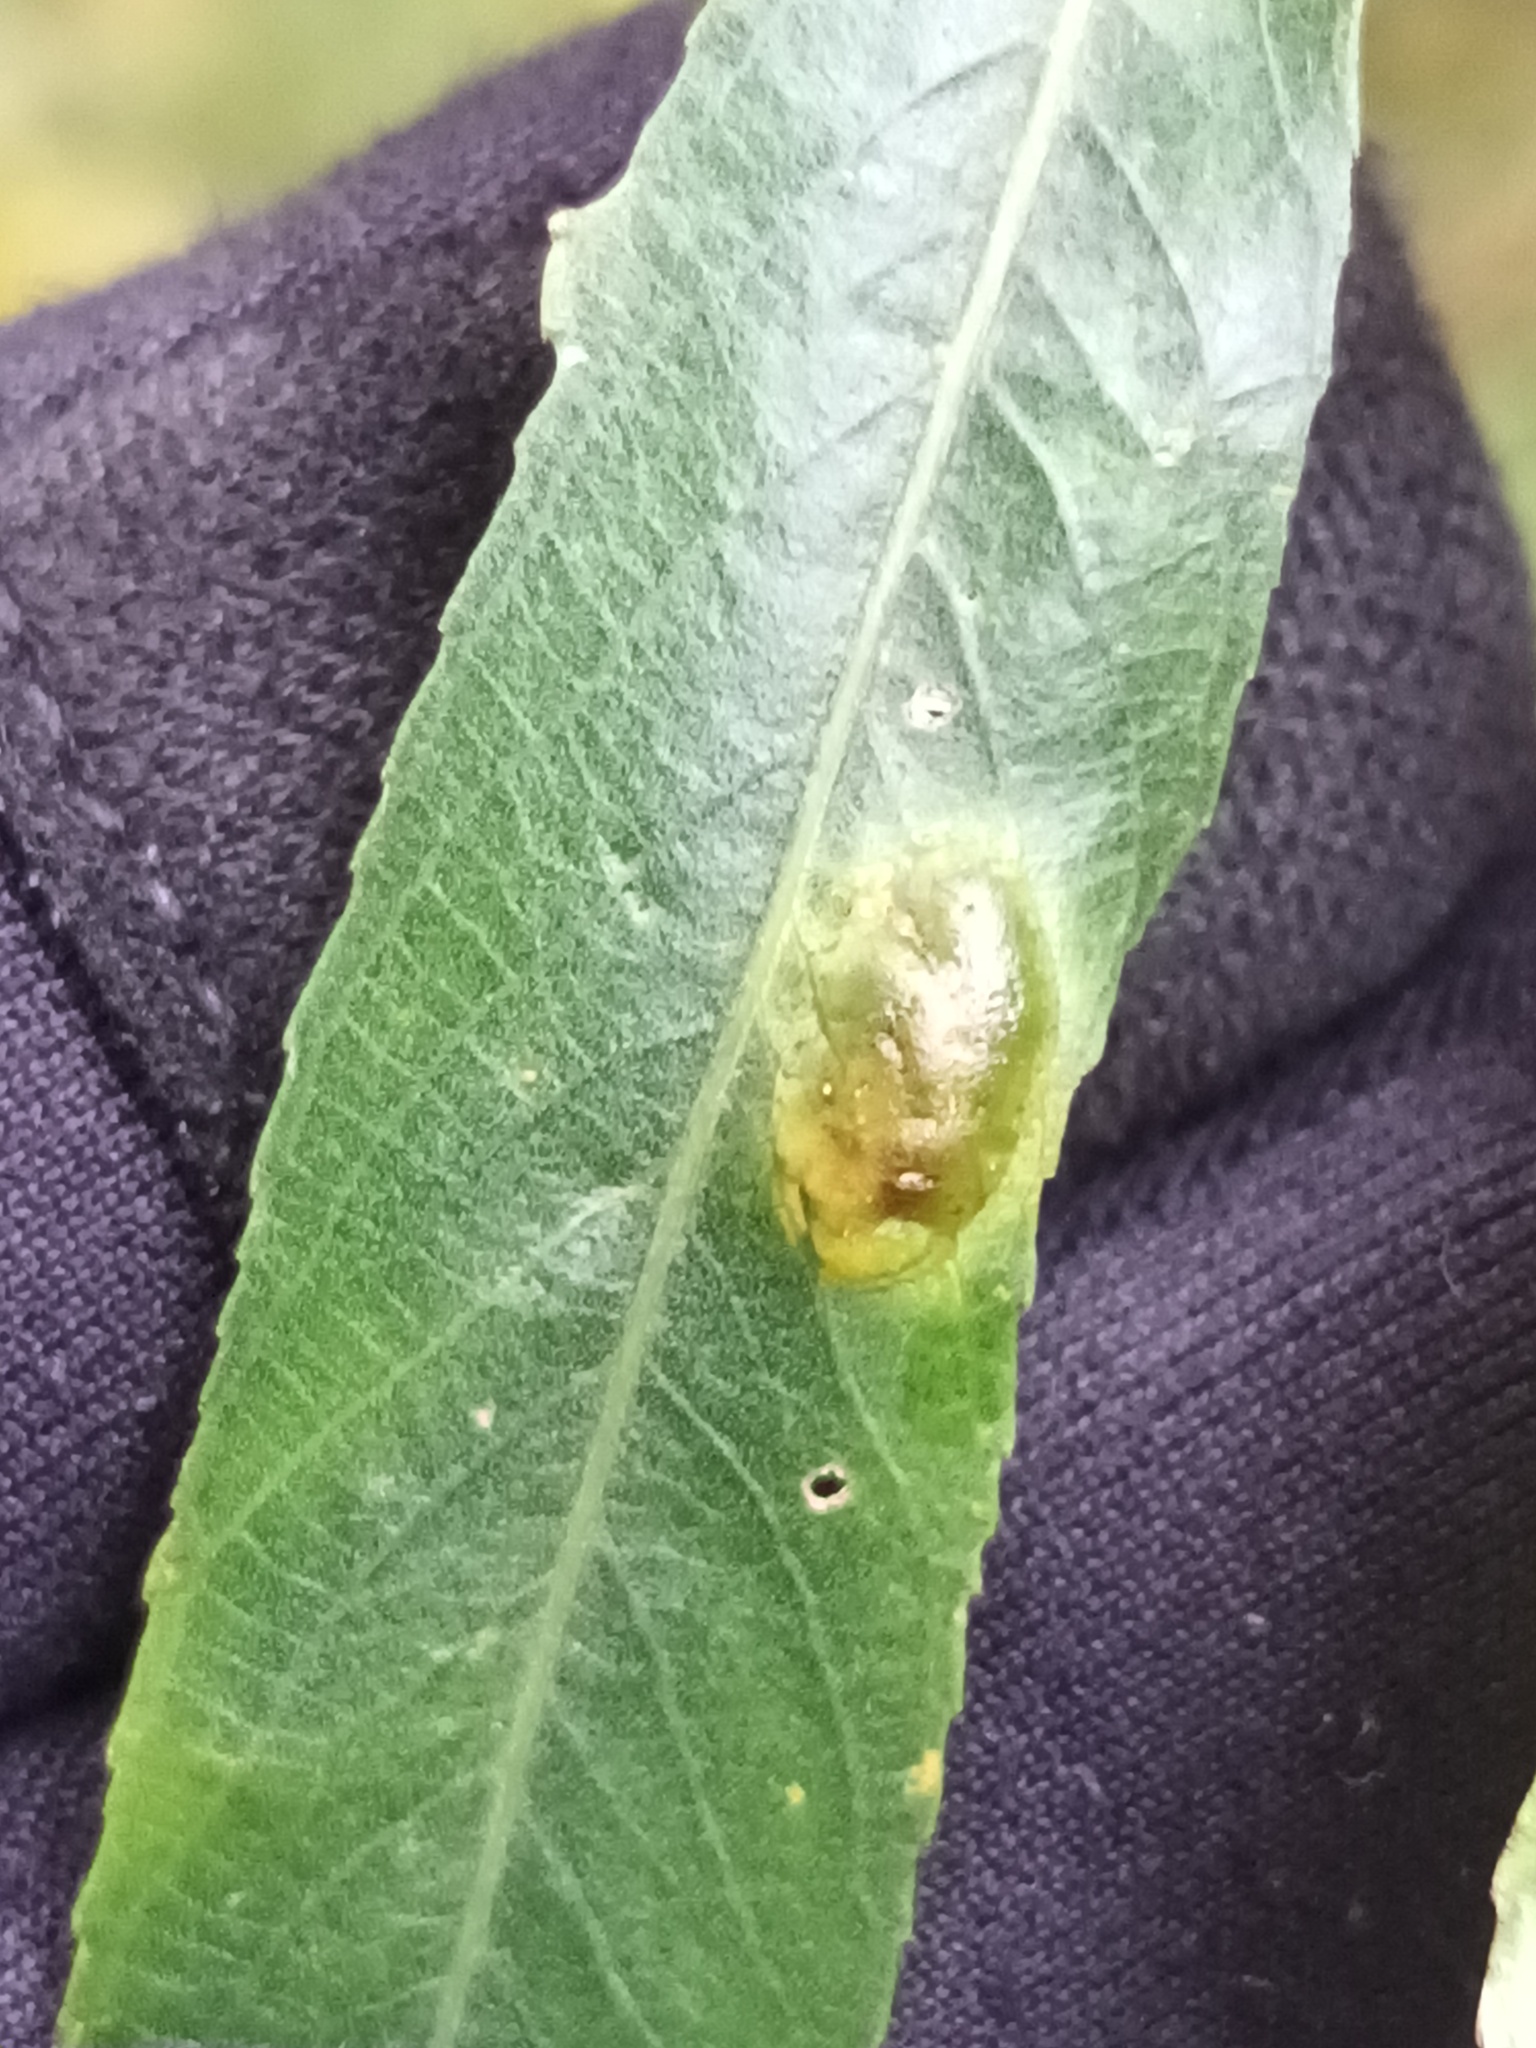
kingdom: Animalia
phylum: Arthropoda
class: Insecta
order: Hymenoptera
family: Tenthredinidae
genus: Pontania
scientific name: Pontania proxima
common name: Common sawfly
